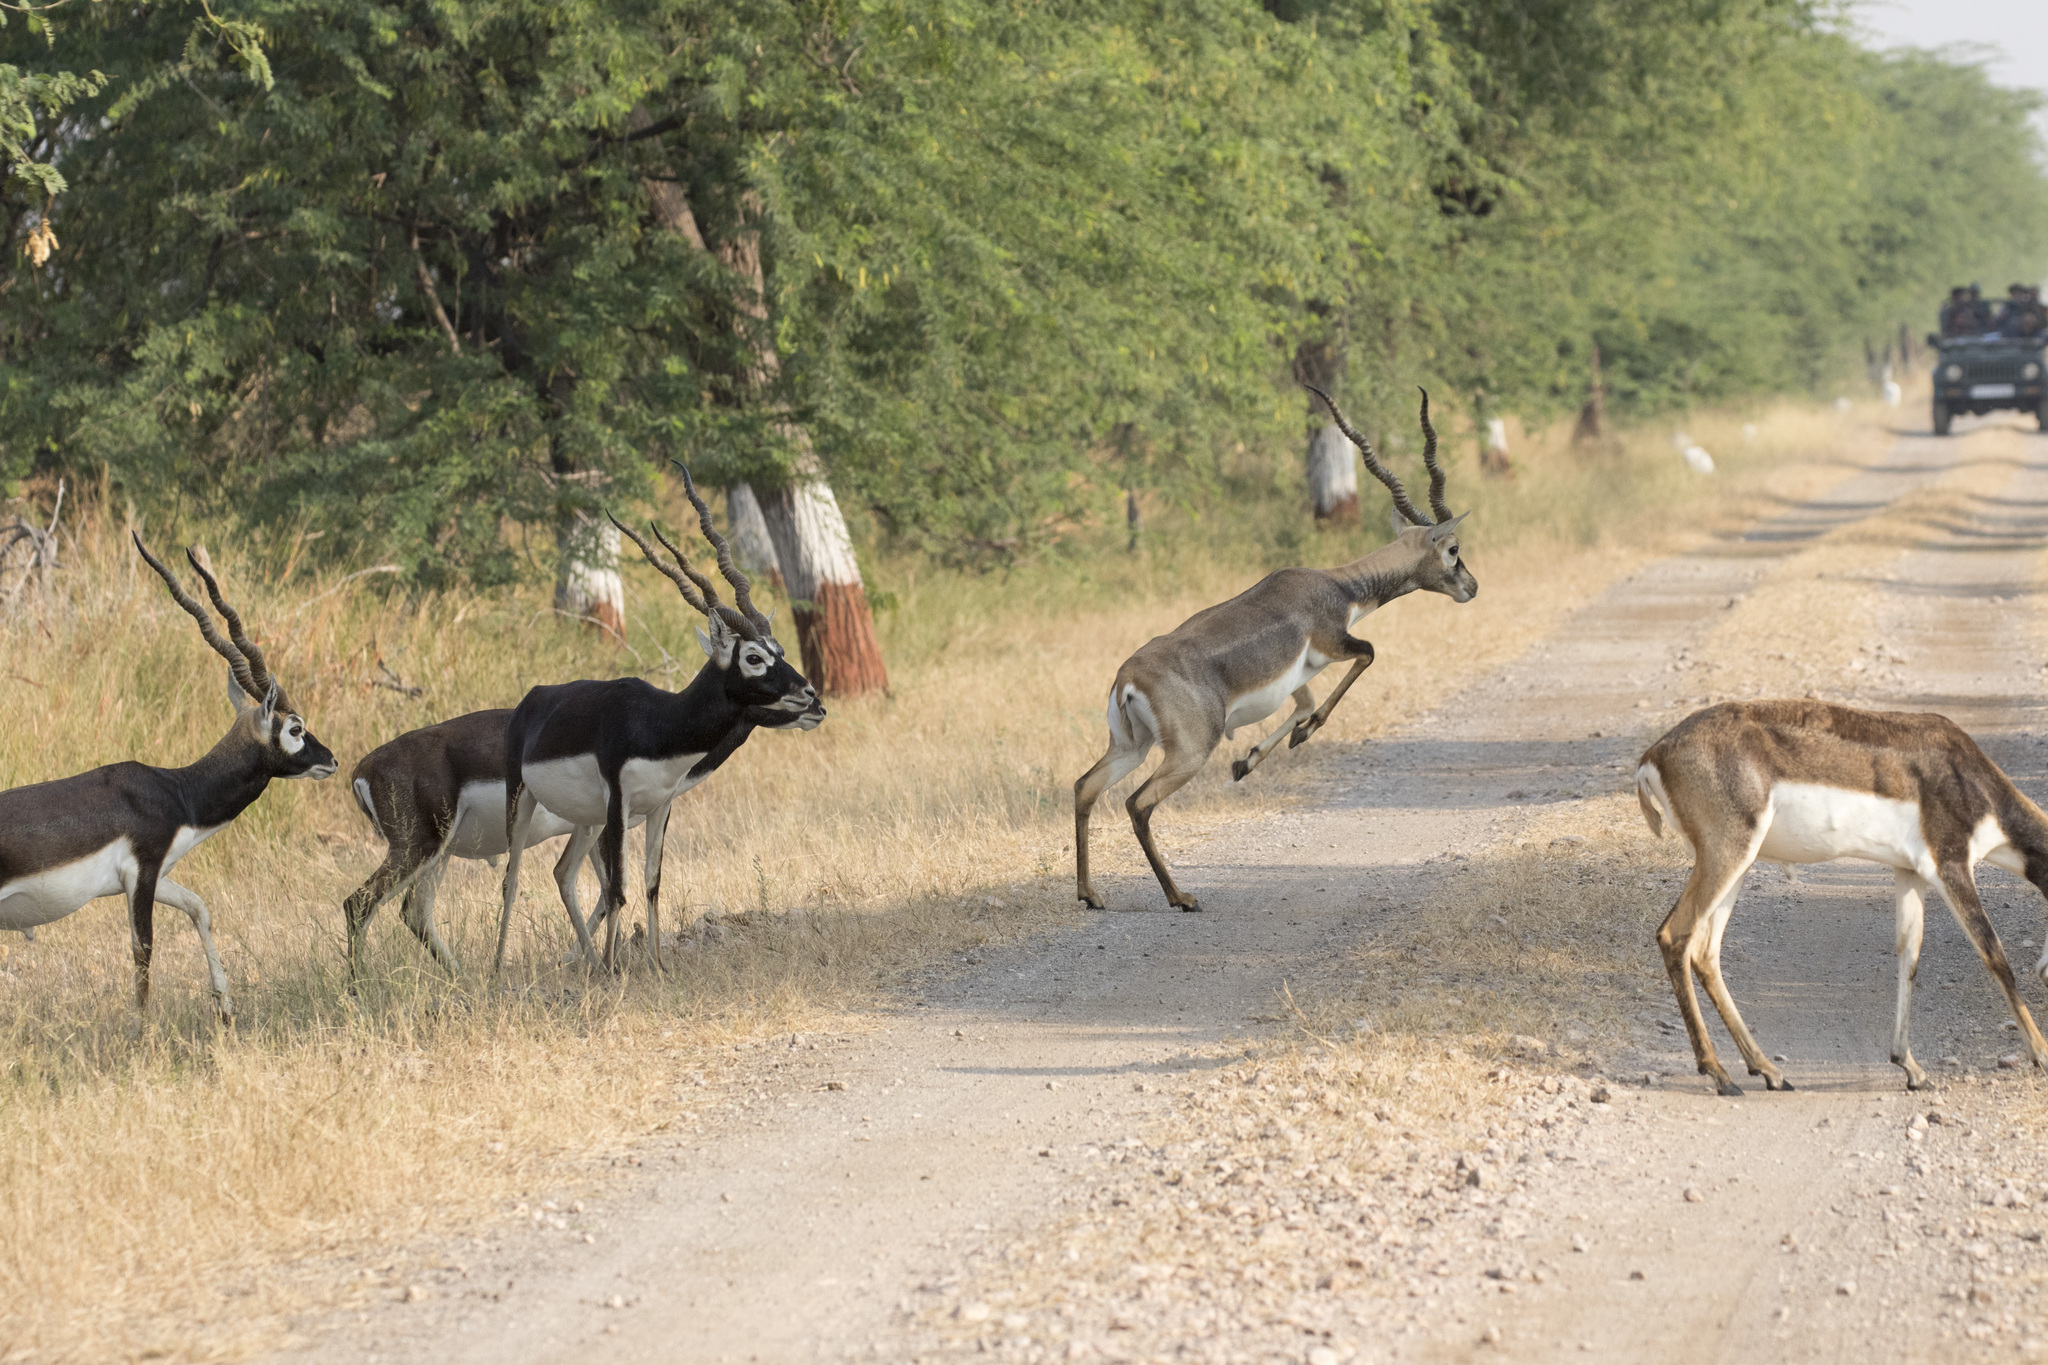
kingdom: Animalia
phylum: Chordata
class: Mammalia
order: Artiodactyla
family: Bovidae
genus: Antilope
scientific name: Antilope cervicapra
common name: Blackbuck
